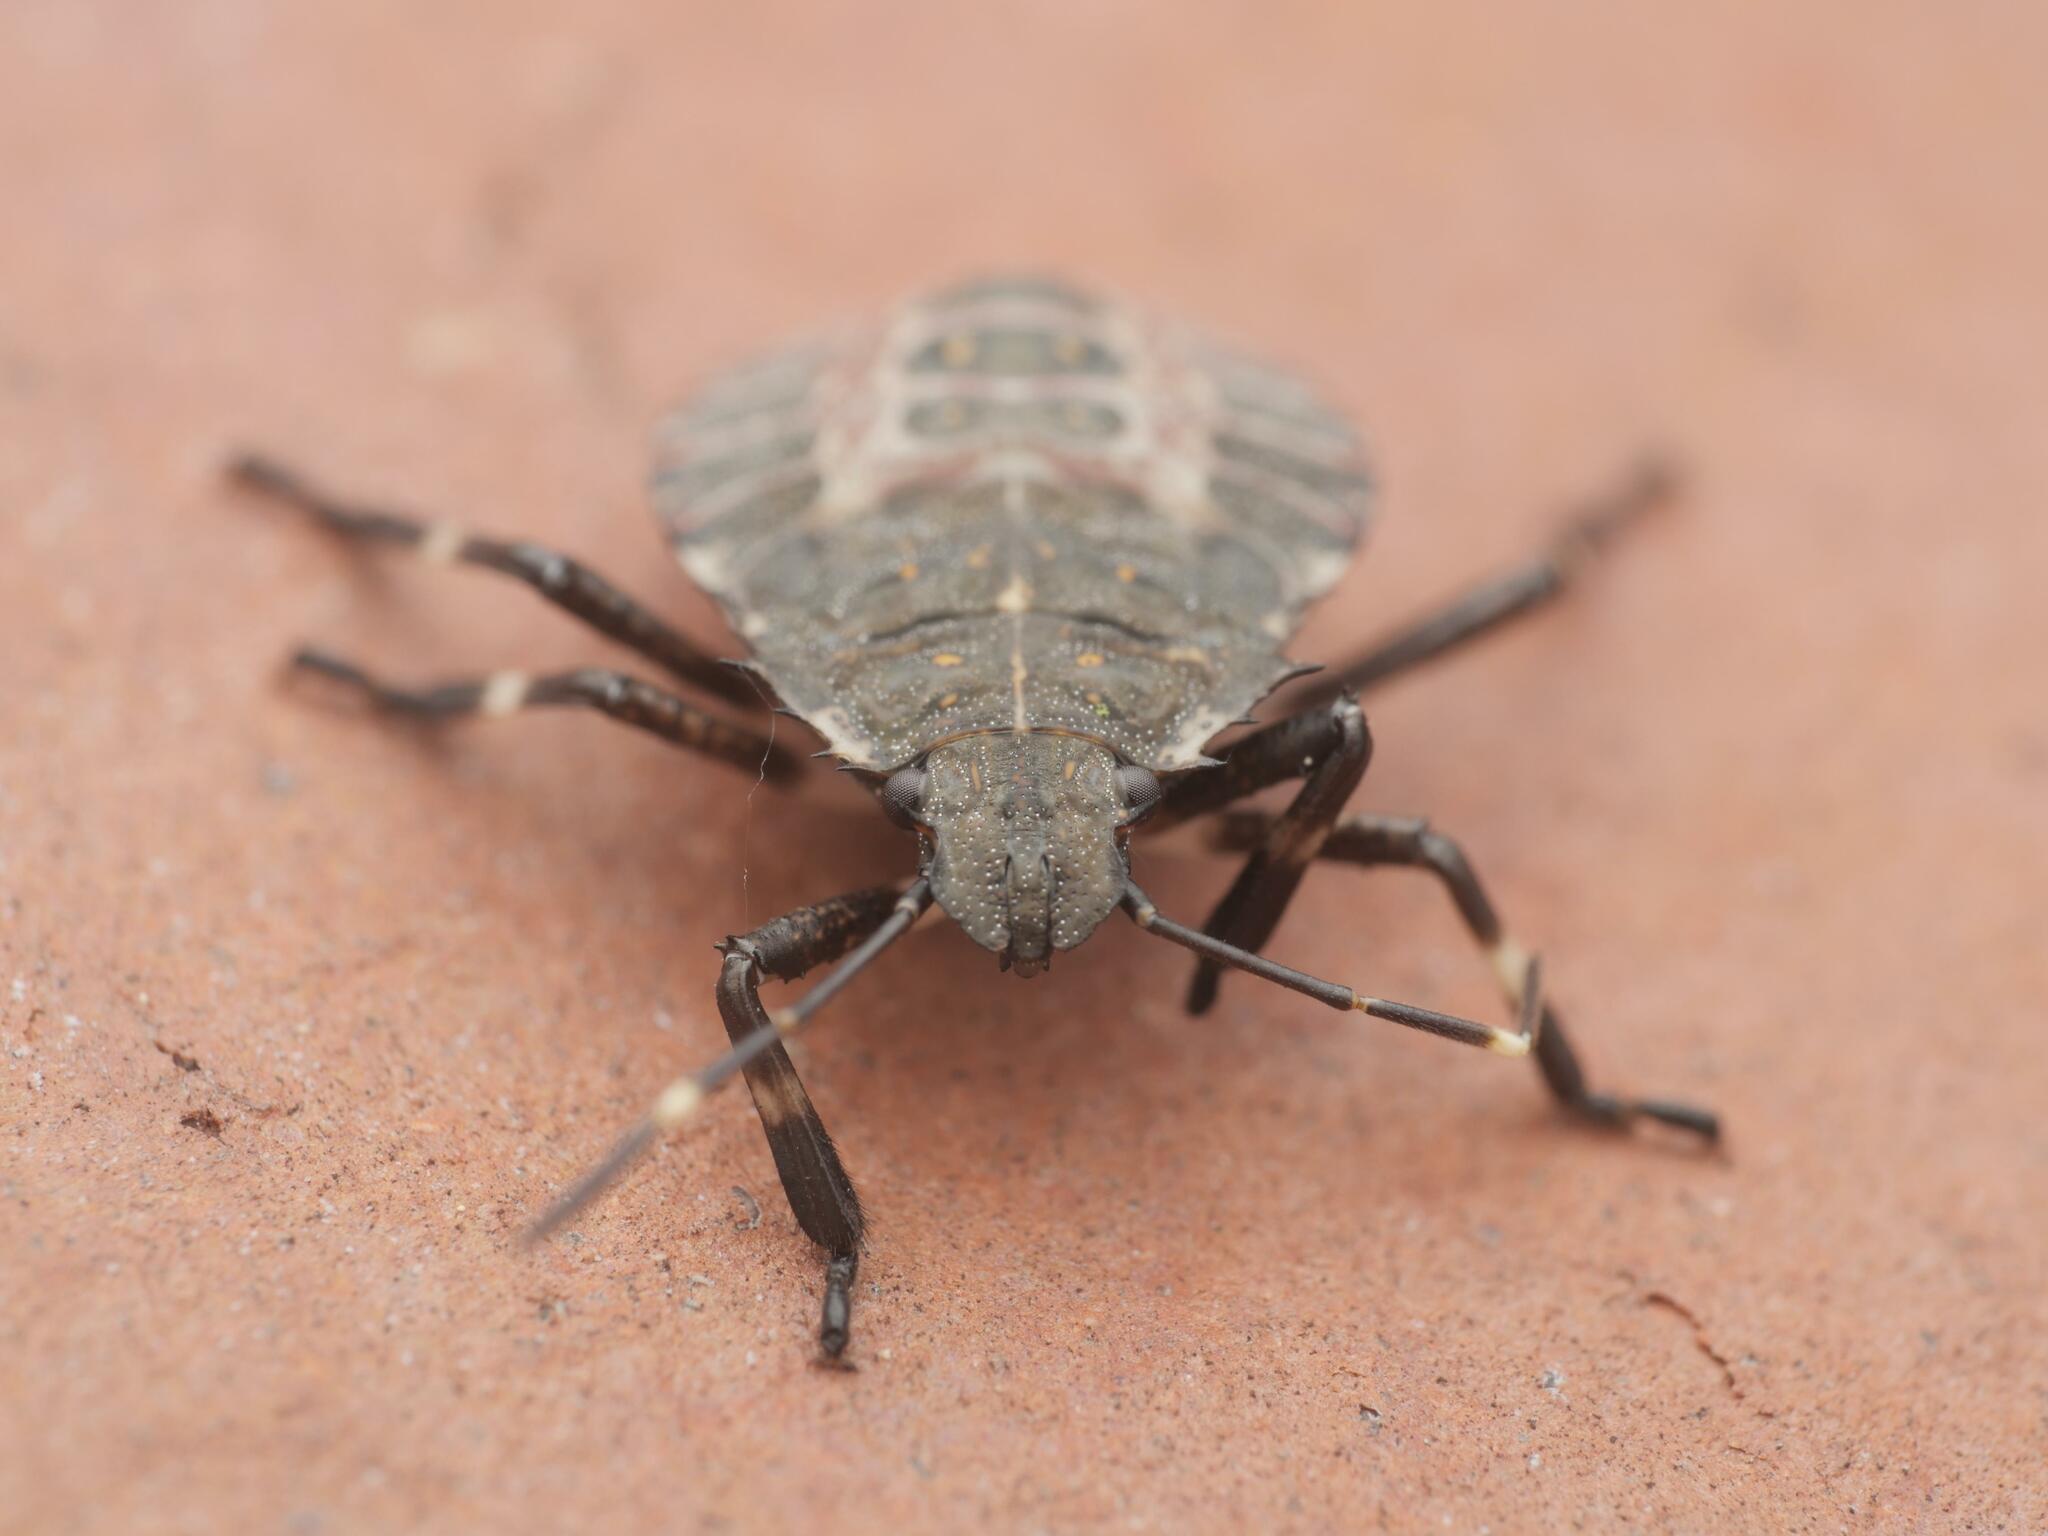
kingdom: Animalia
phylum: Arthropoda
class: Insecta
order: Hemiptera
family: Pentatomidae
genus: Halyomorpha
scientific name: Halyomorpha halys
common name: Brown marmorated stink bug
